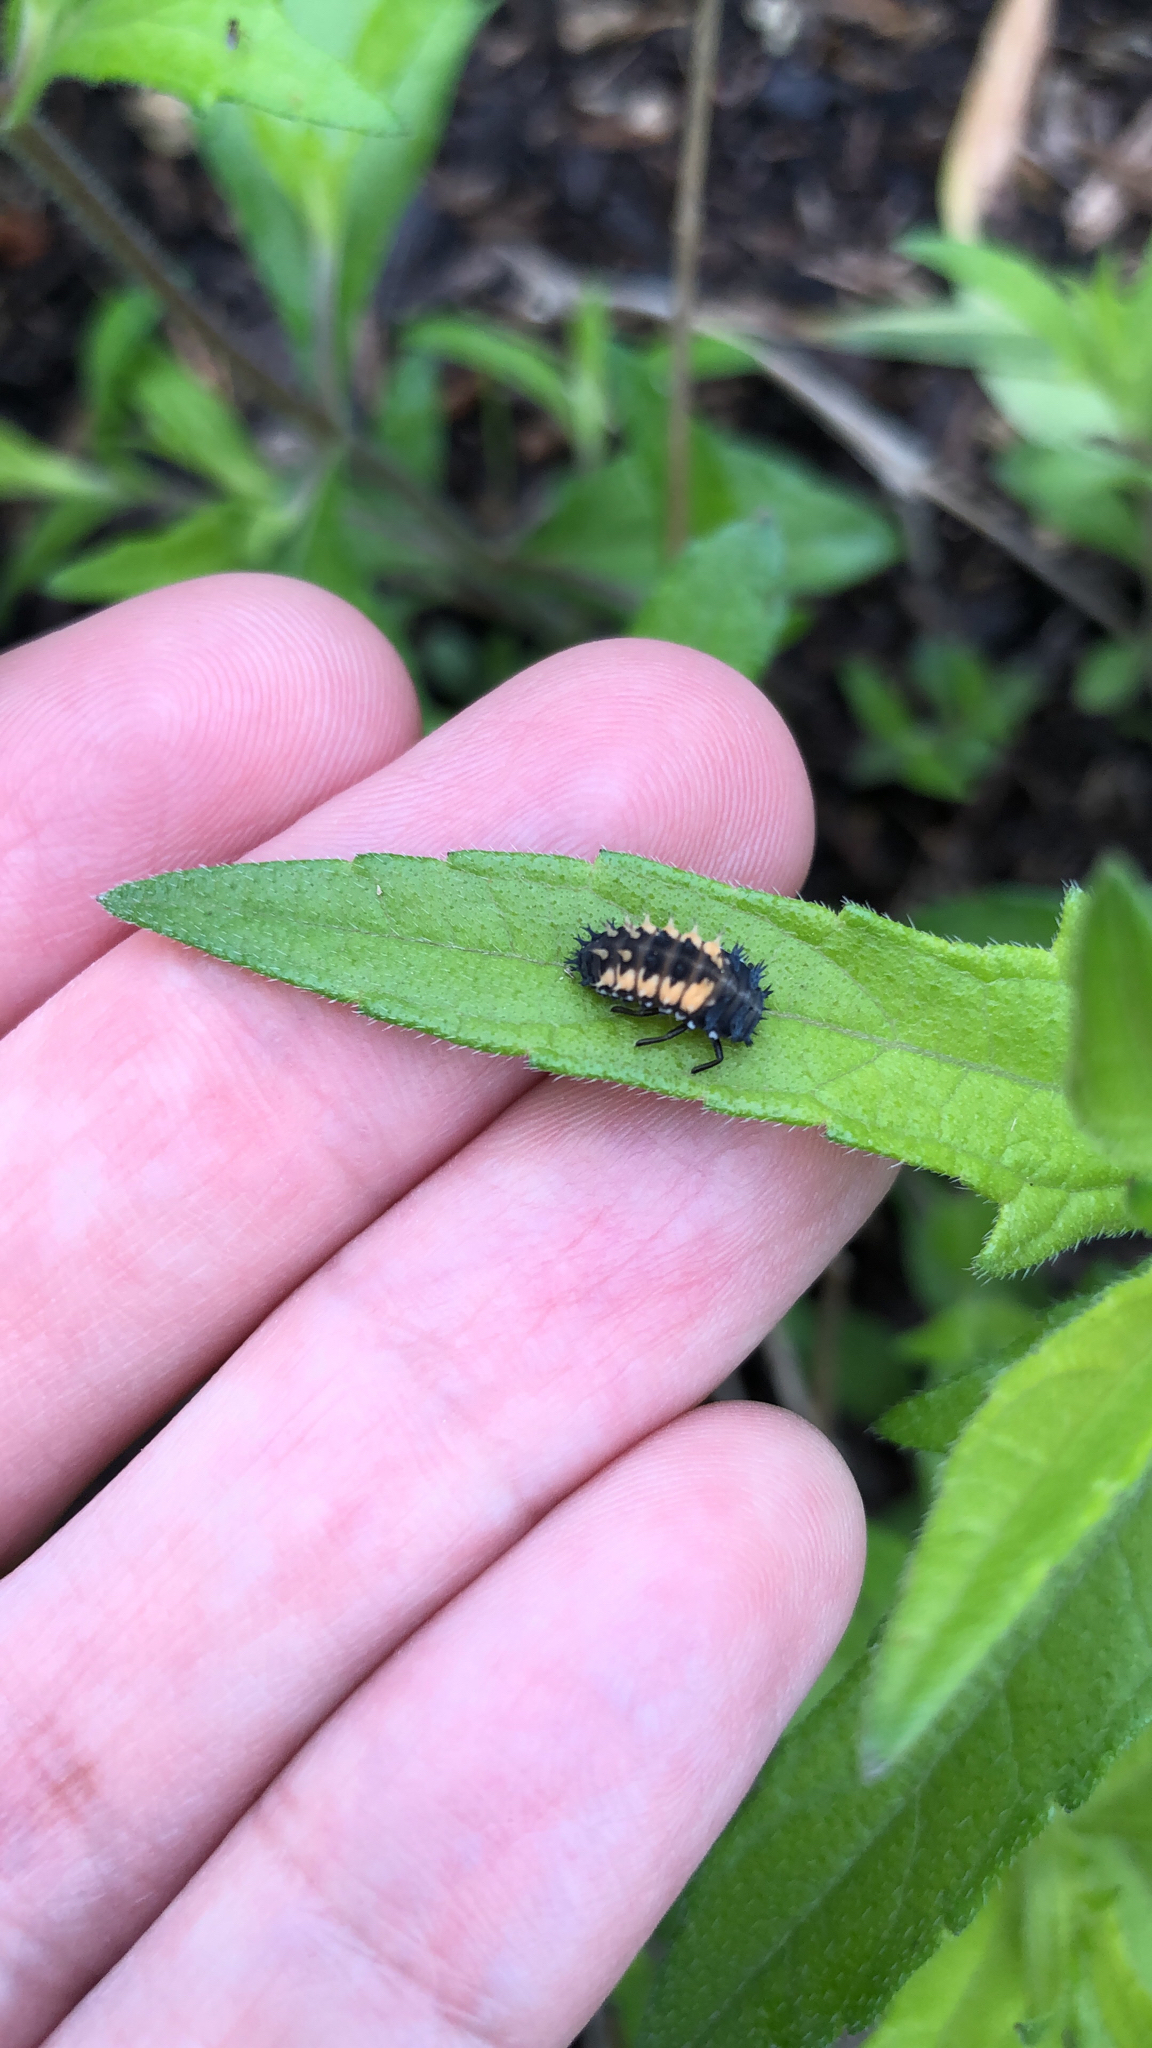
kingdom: Animalia
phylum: Arthropoda
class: Insecta
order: Coleoptera
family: Coccinellidae
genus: Harmonia
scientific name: Harmonia axyridis
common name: Harlequin ladybird
